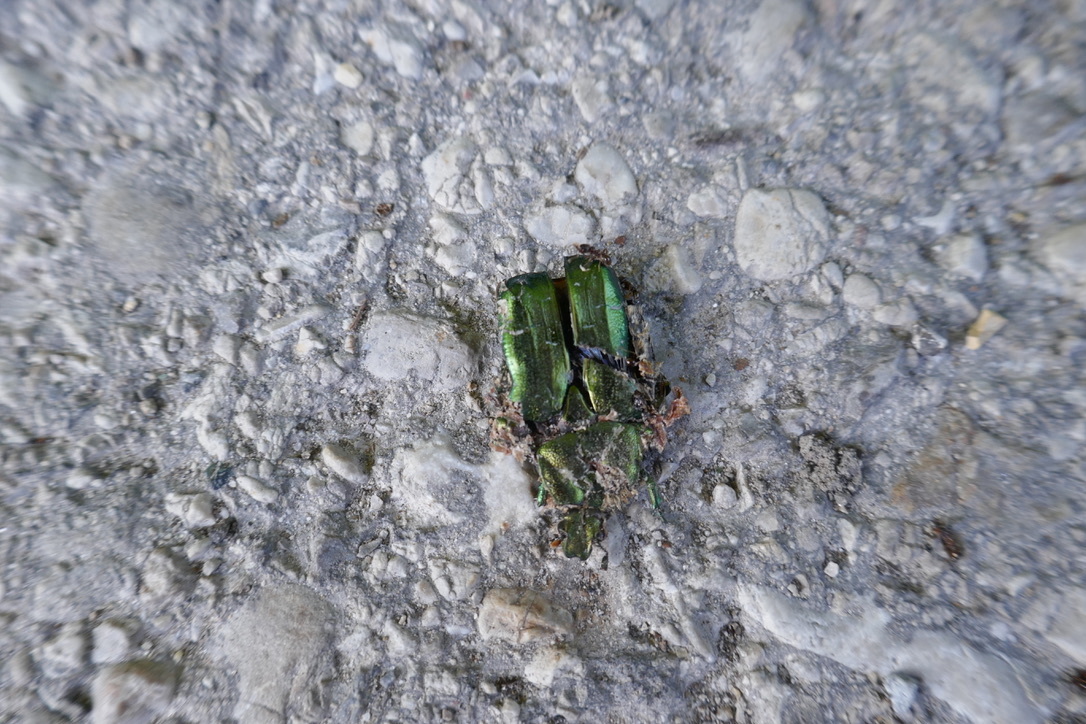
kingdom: Animalia
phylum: Arthropoda
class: Insecta
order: Coleoptera
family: Scarabaeidae
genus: Cetonia
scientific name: Cetonia aurata
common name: Rose chafer
